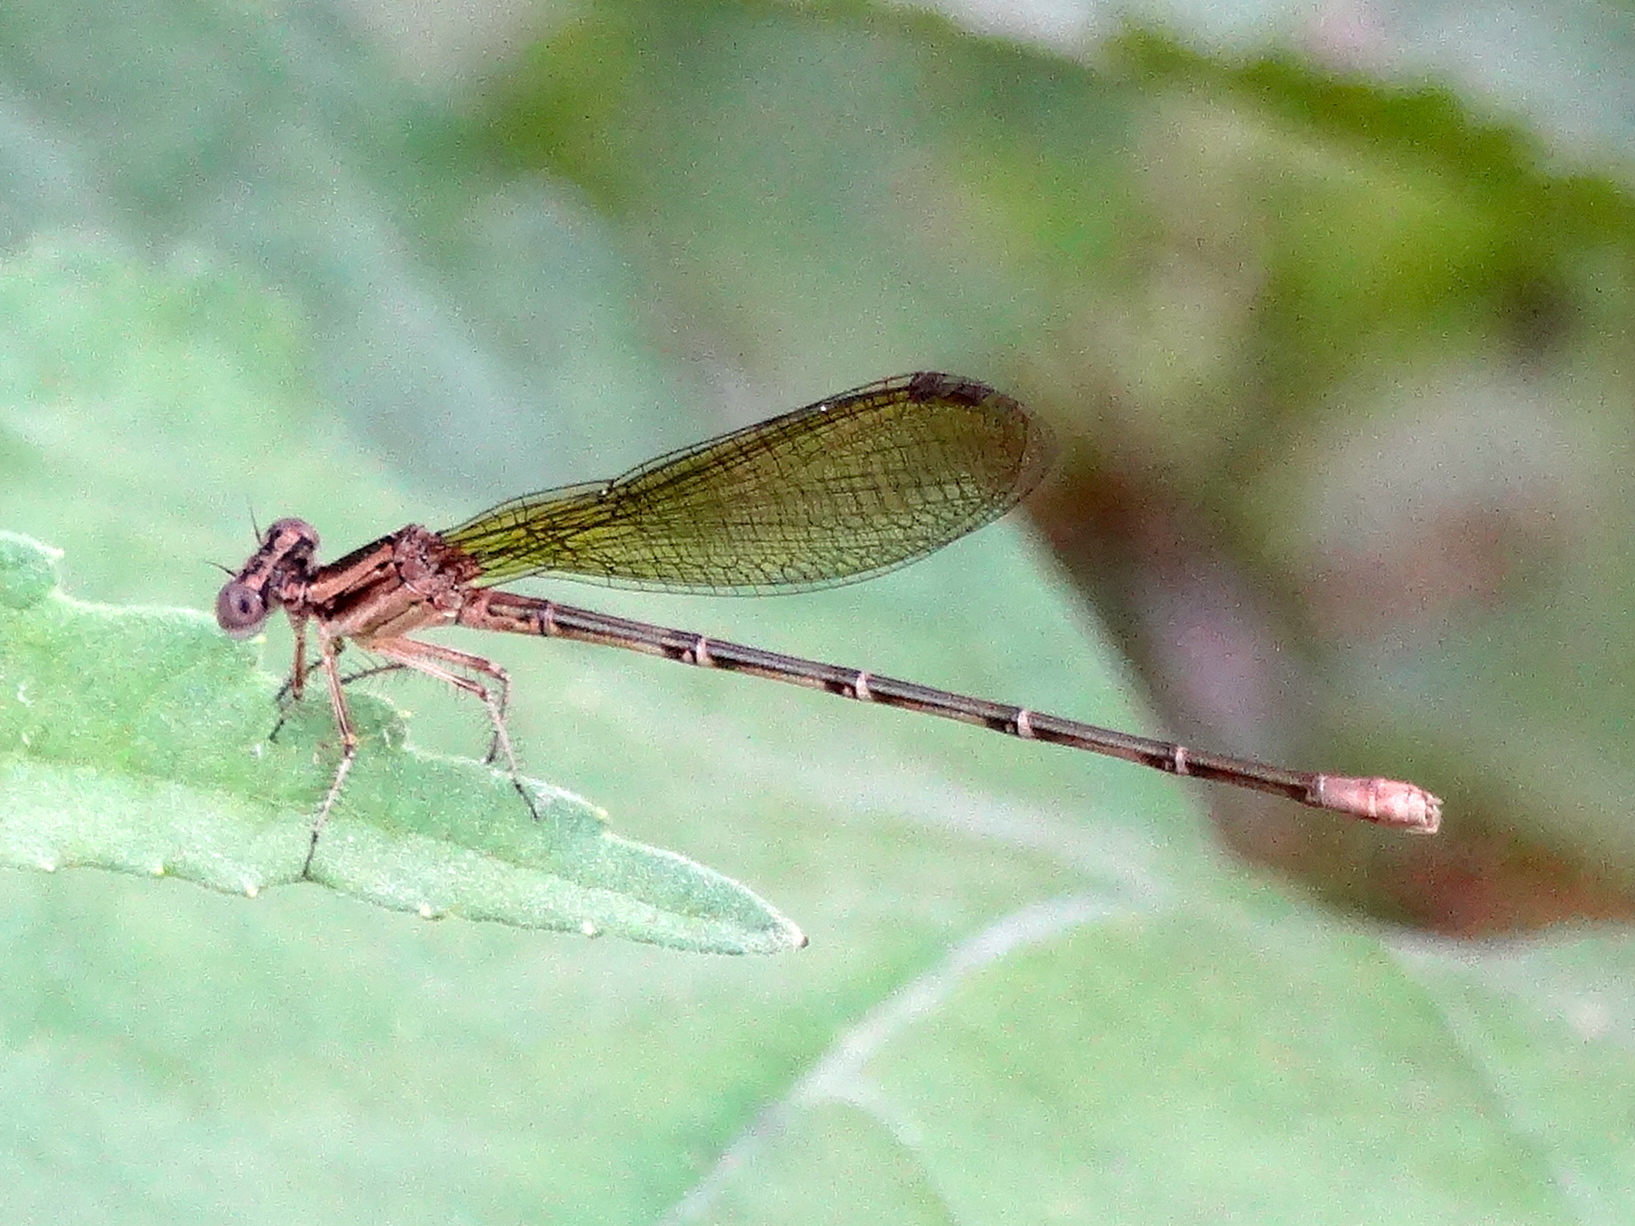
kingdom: Animalia
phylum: Arthropoda
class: Insecta
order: Odonata
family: Coenagrionidae
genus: Argia
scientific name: Argia
